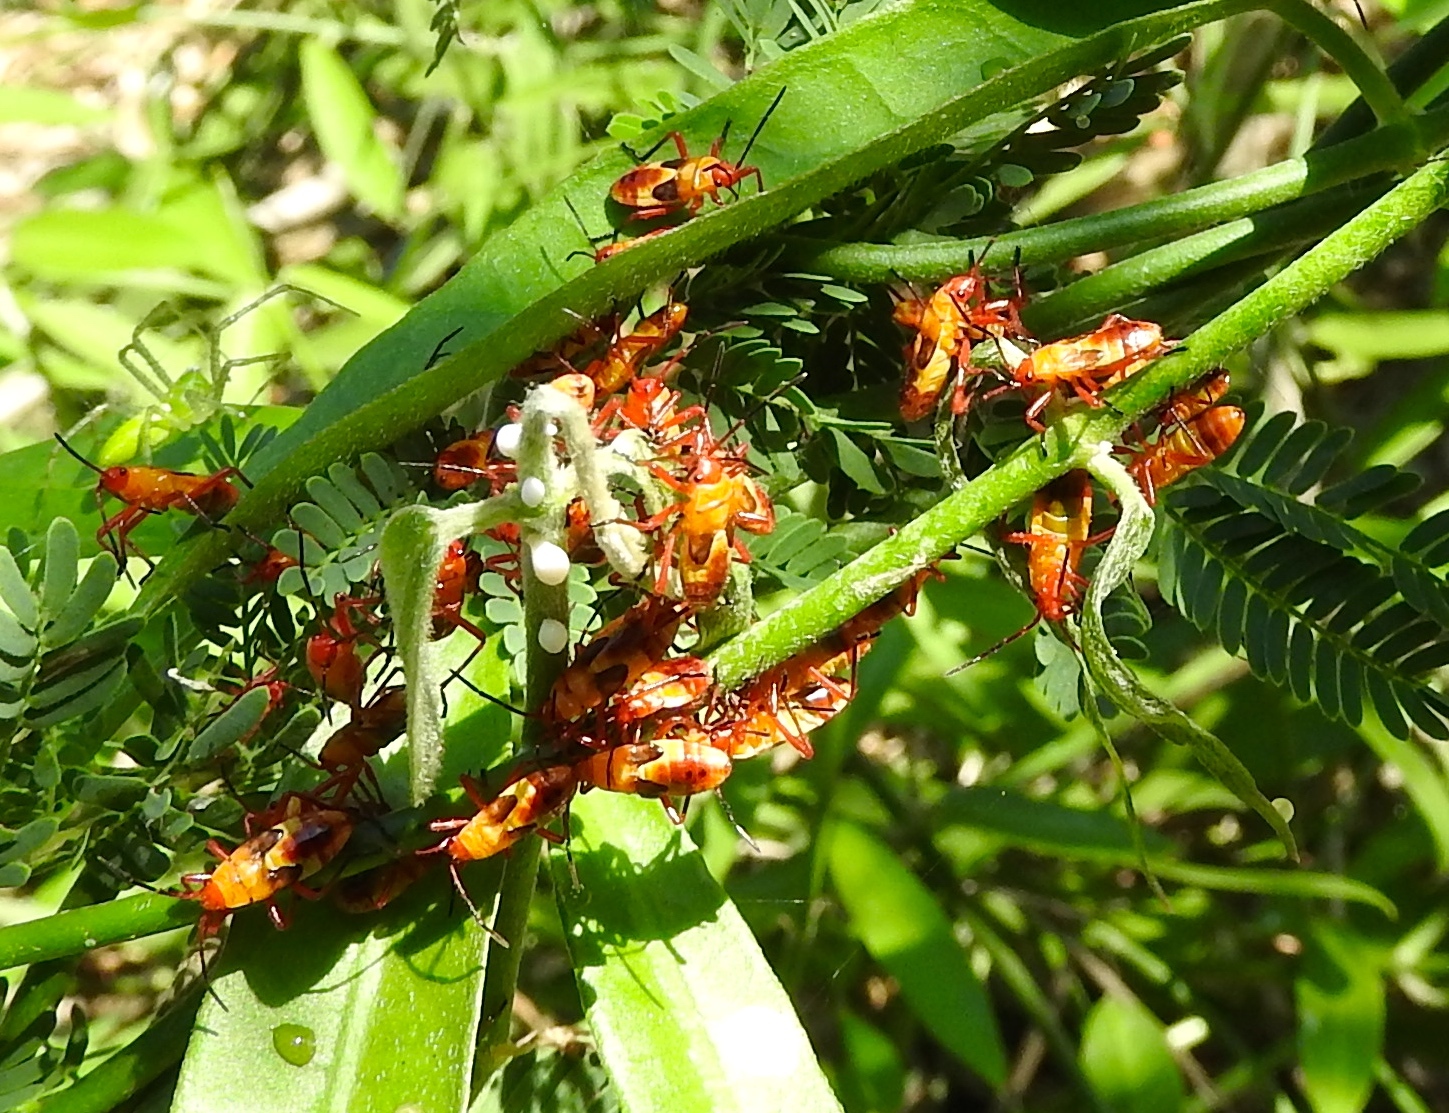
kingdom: Animalia
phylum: Arthropoda
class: Insecta
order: Hemiptera
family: Lygaeidae
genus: Oncopeltus
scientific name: Oncopeltus
